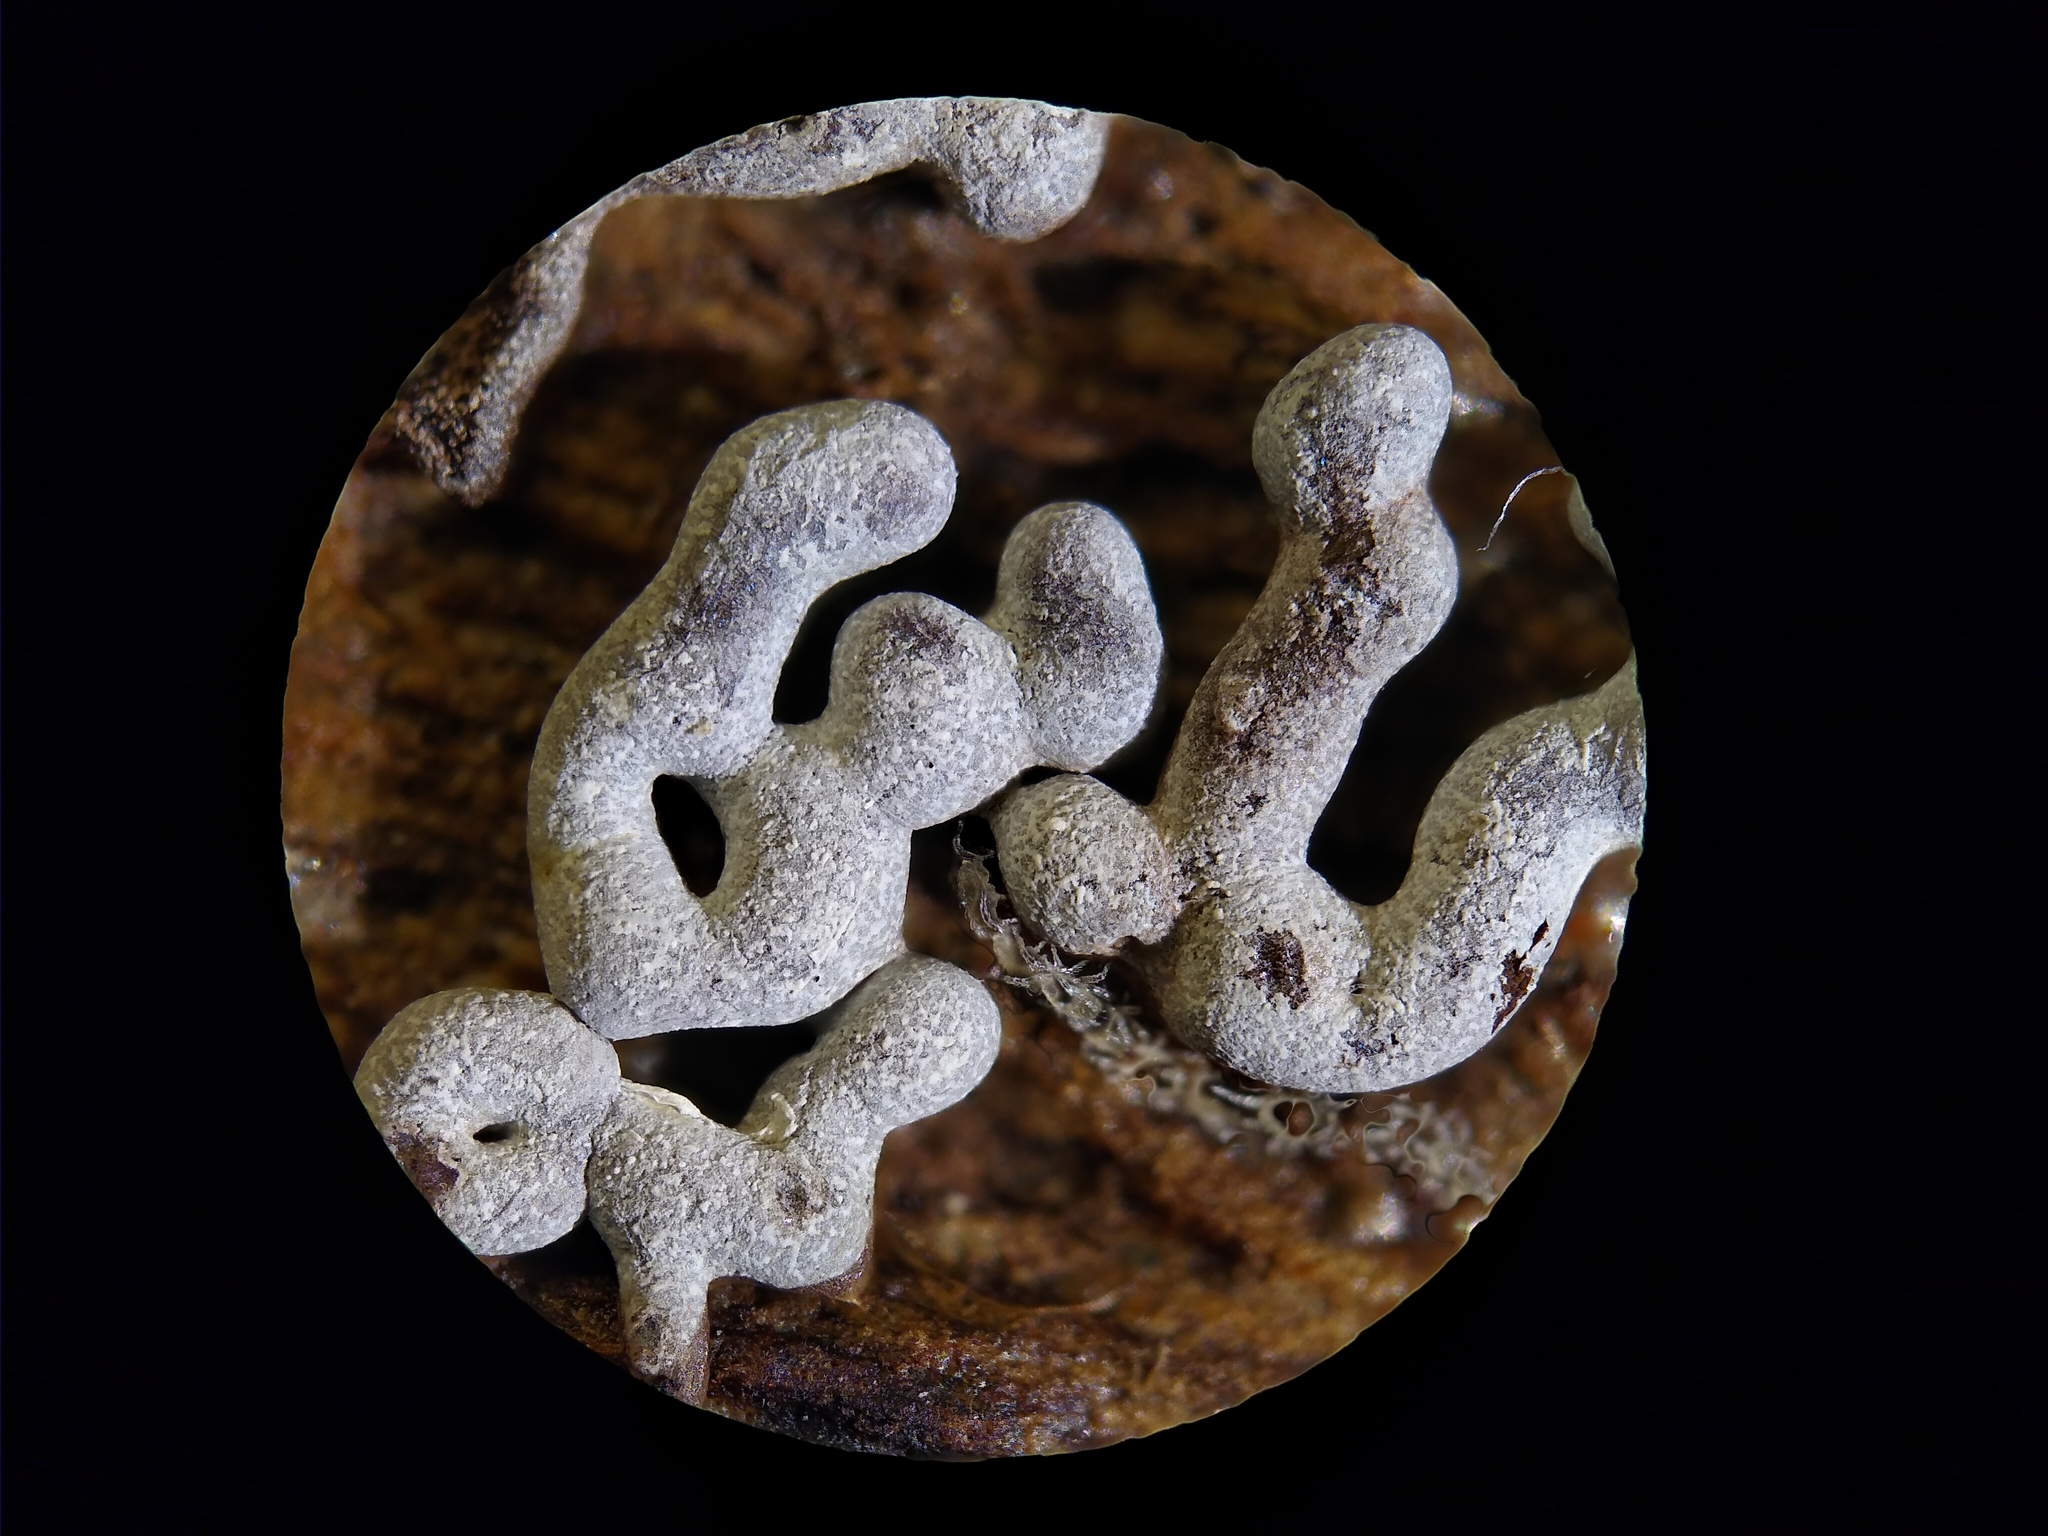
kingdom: Protozoa
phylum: Mycetozoa
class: Myxomycetes
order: Physarales
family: Physaraceae
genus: Physarum
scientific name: Physarum cinereum
